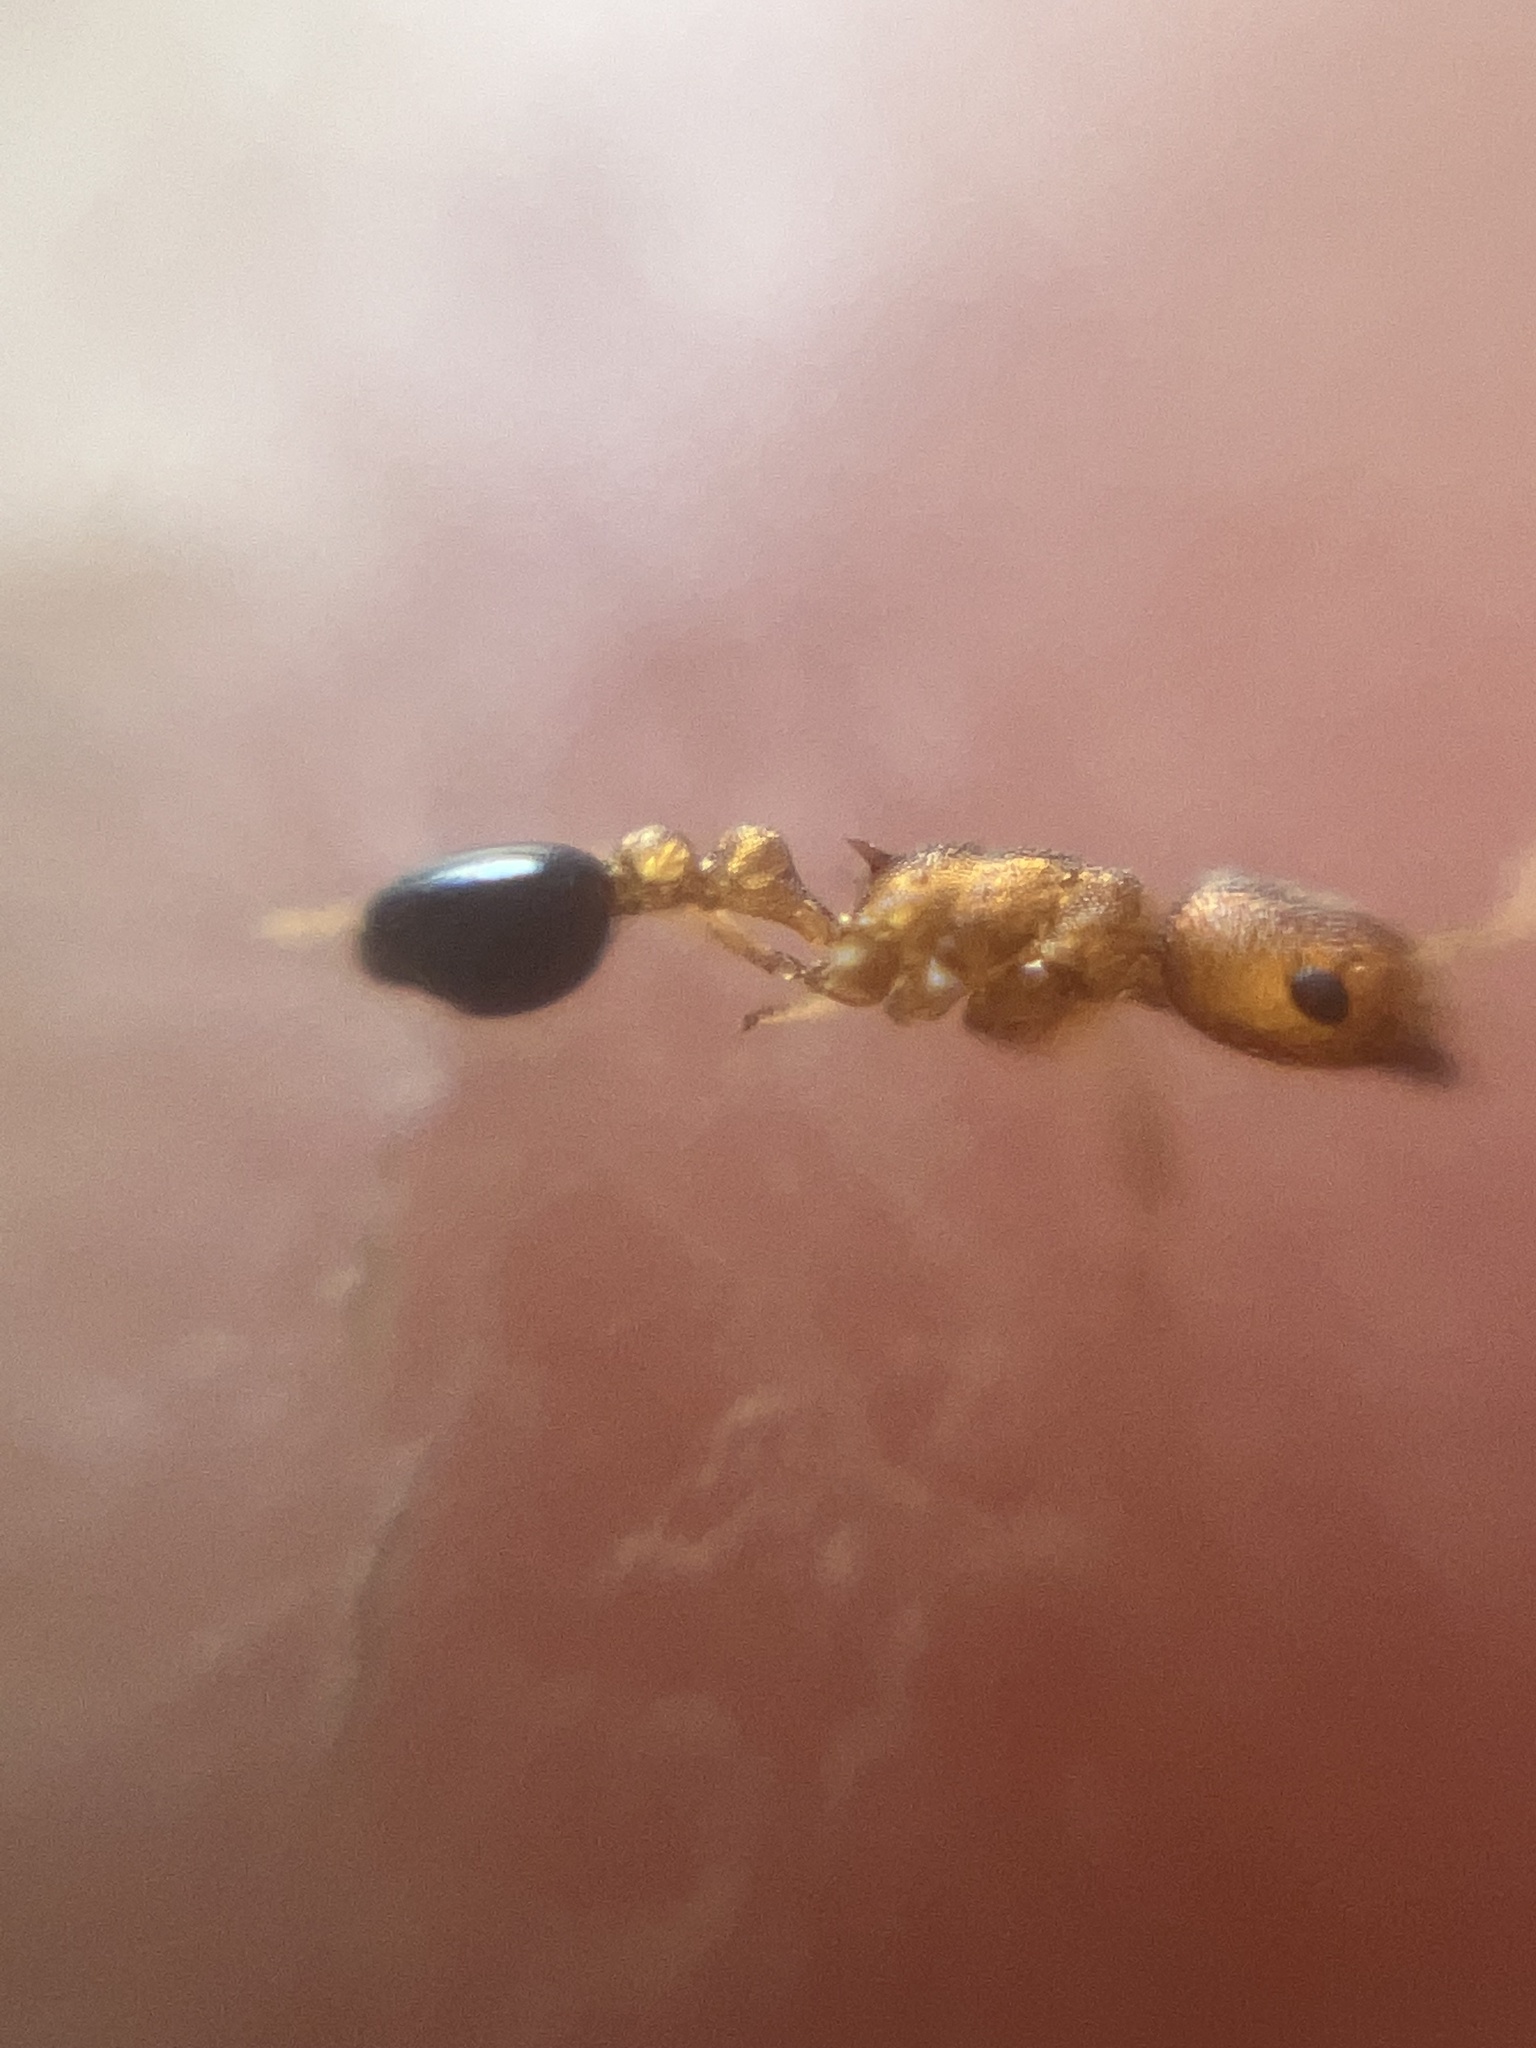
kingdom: Animalia
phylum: Arthropoda
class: Insecta
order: Hymenoptera
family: Formicidae
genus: Cardiocondyla
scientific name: Cardiocondyla shagrinata
